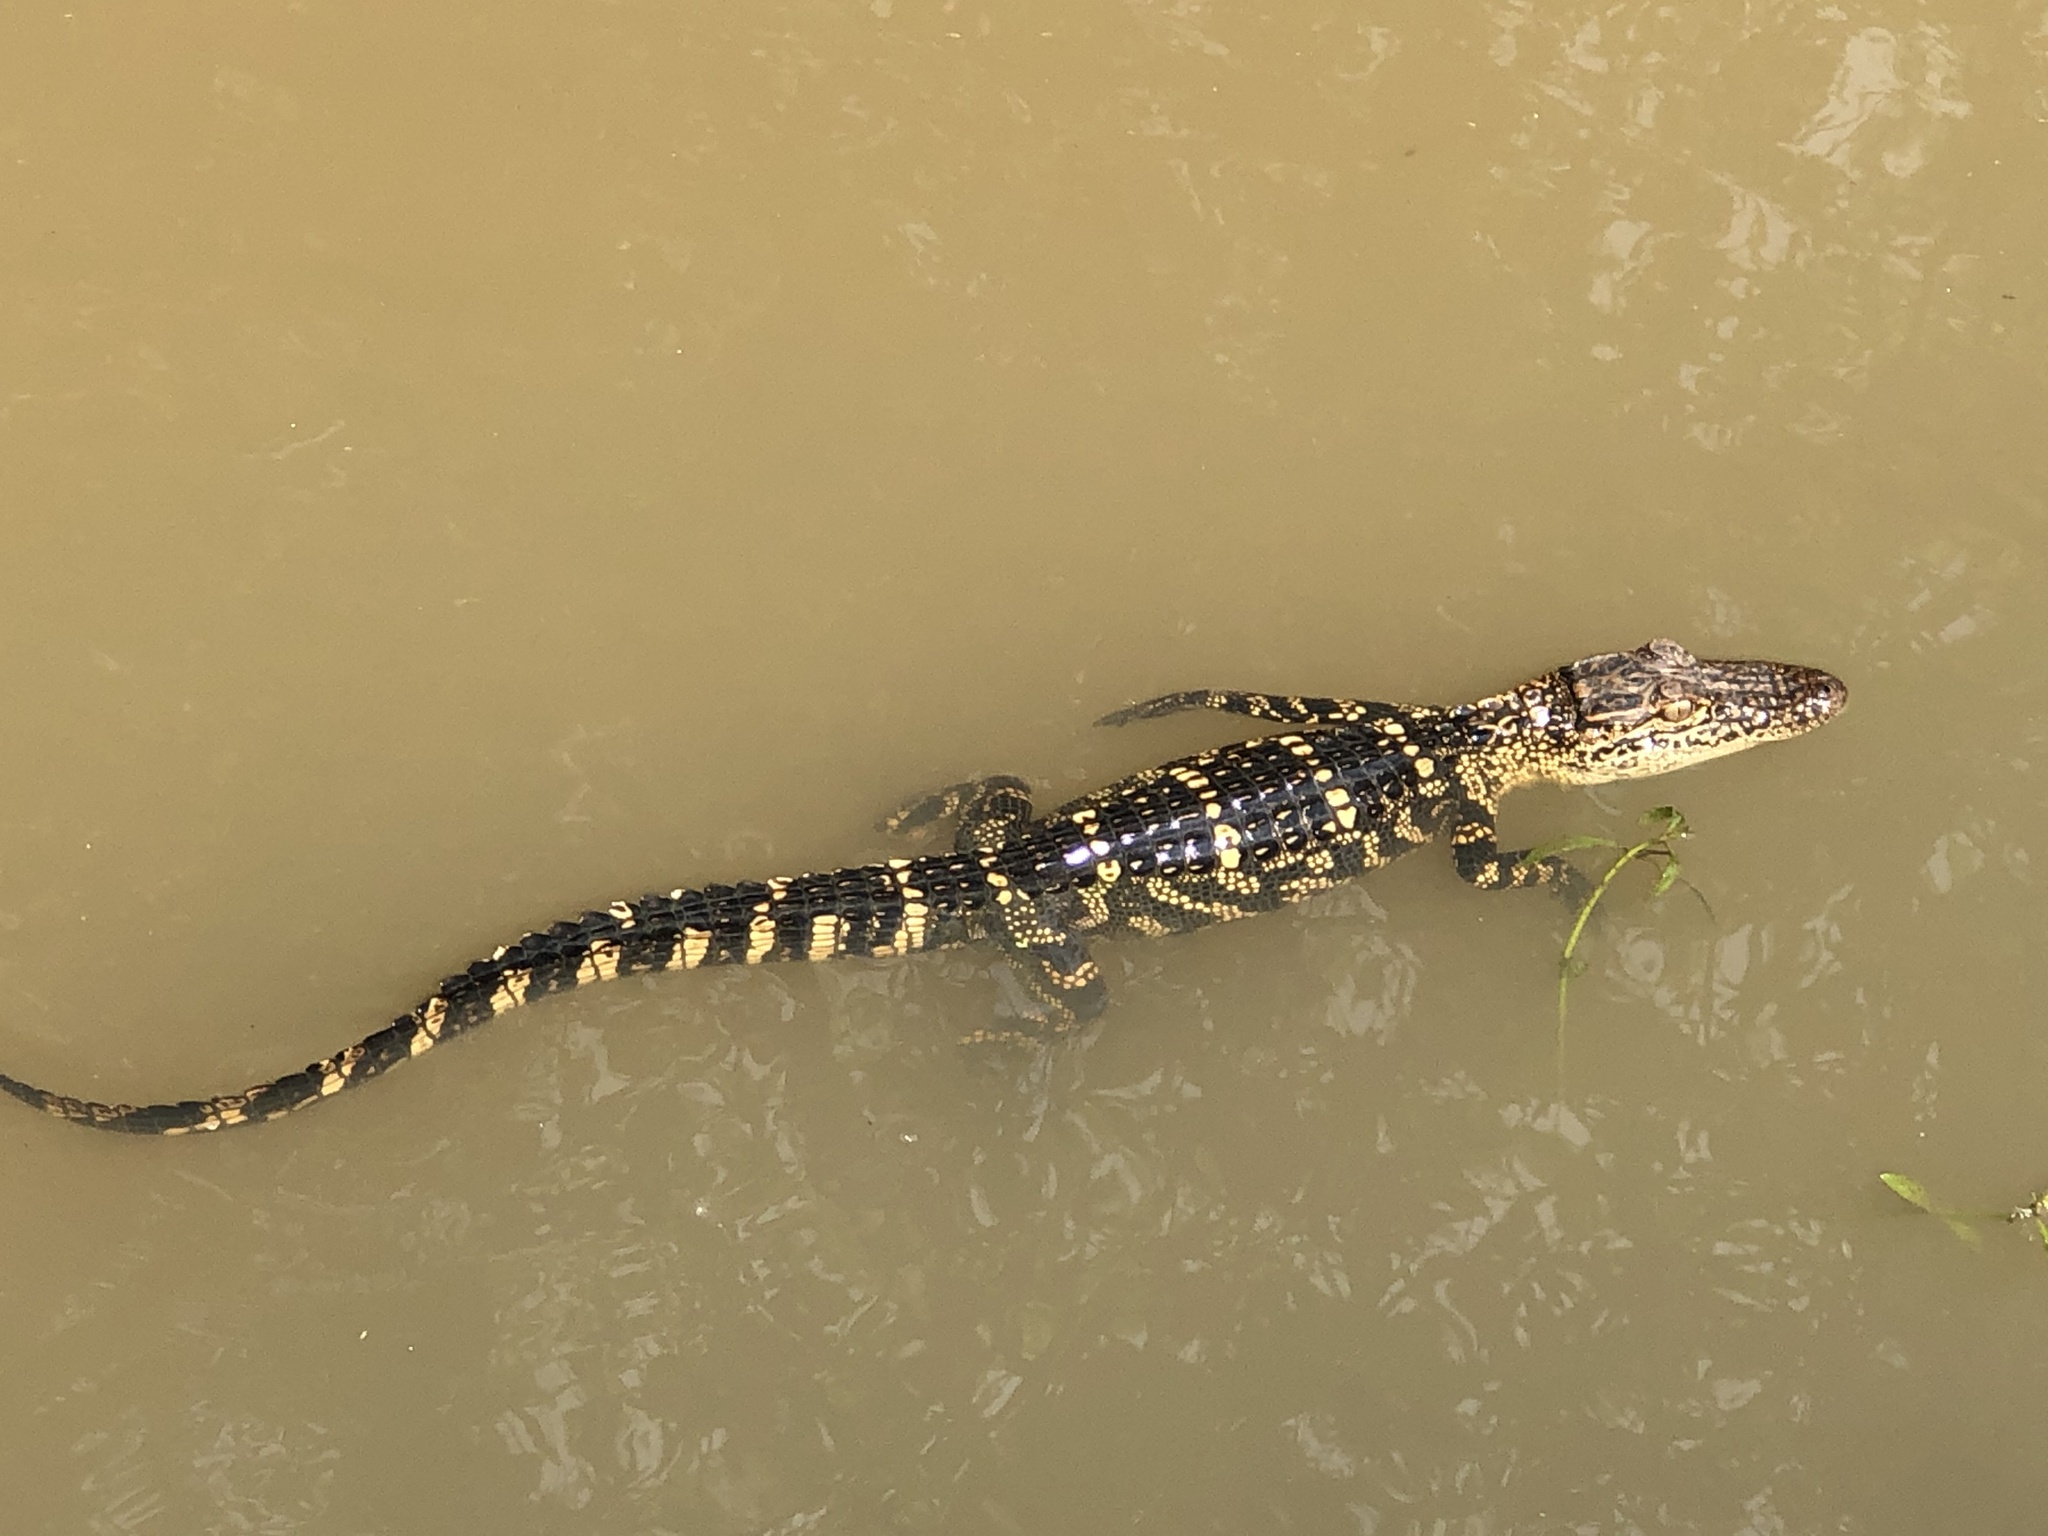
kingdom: Animalia
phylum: Chordata
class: Crocodylia
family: Alligatoridae
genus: Alligator
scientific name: Alligator mississippiensis
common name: American alligator
